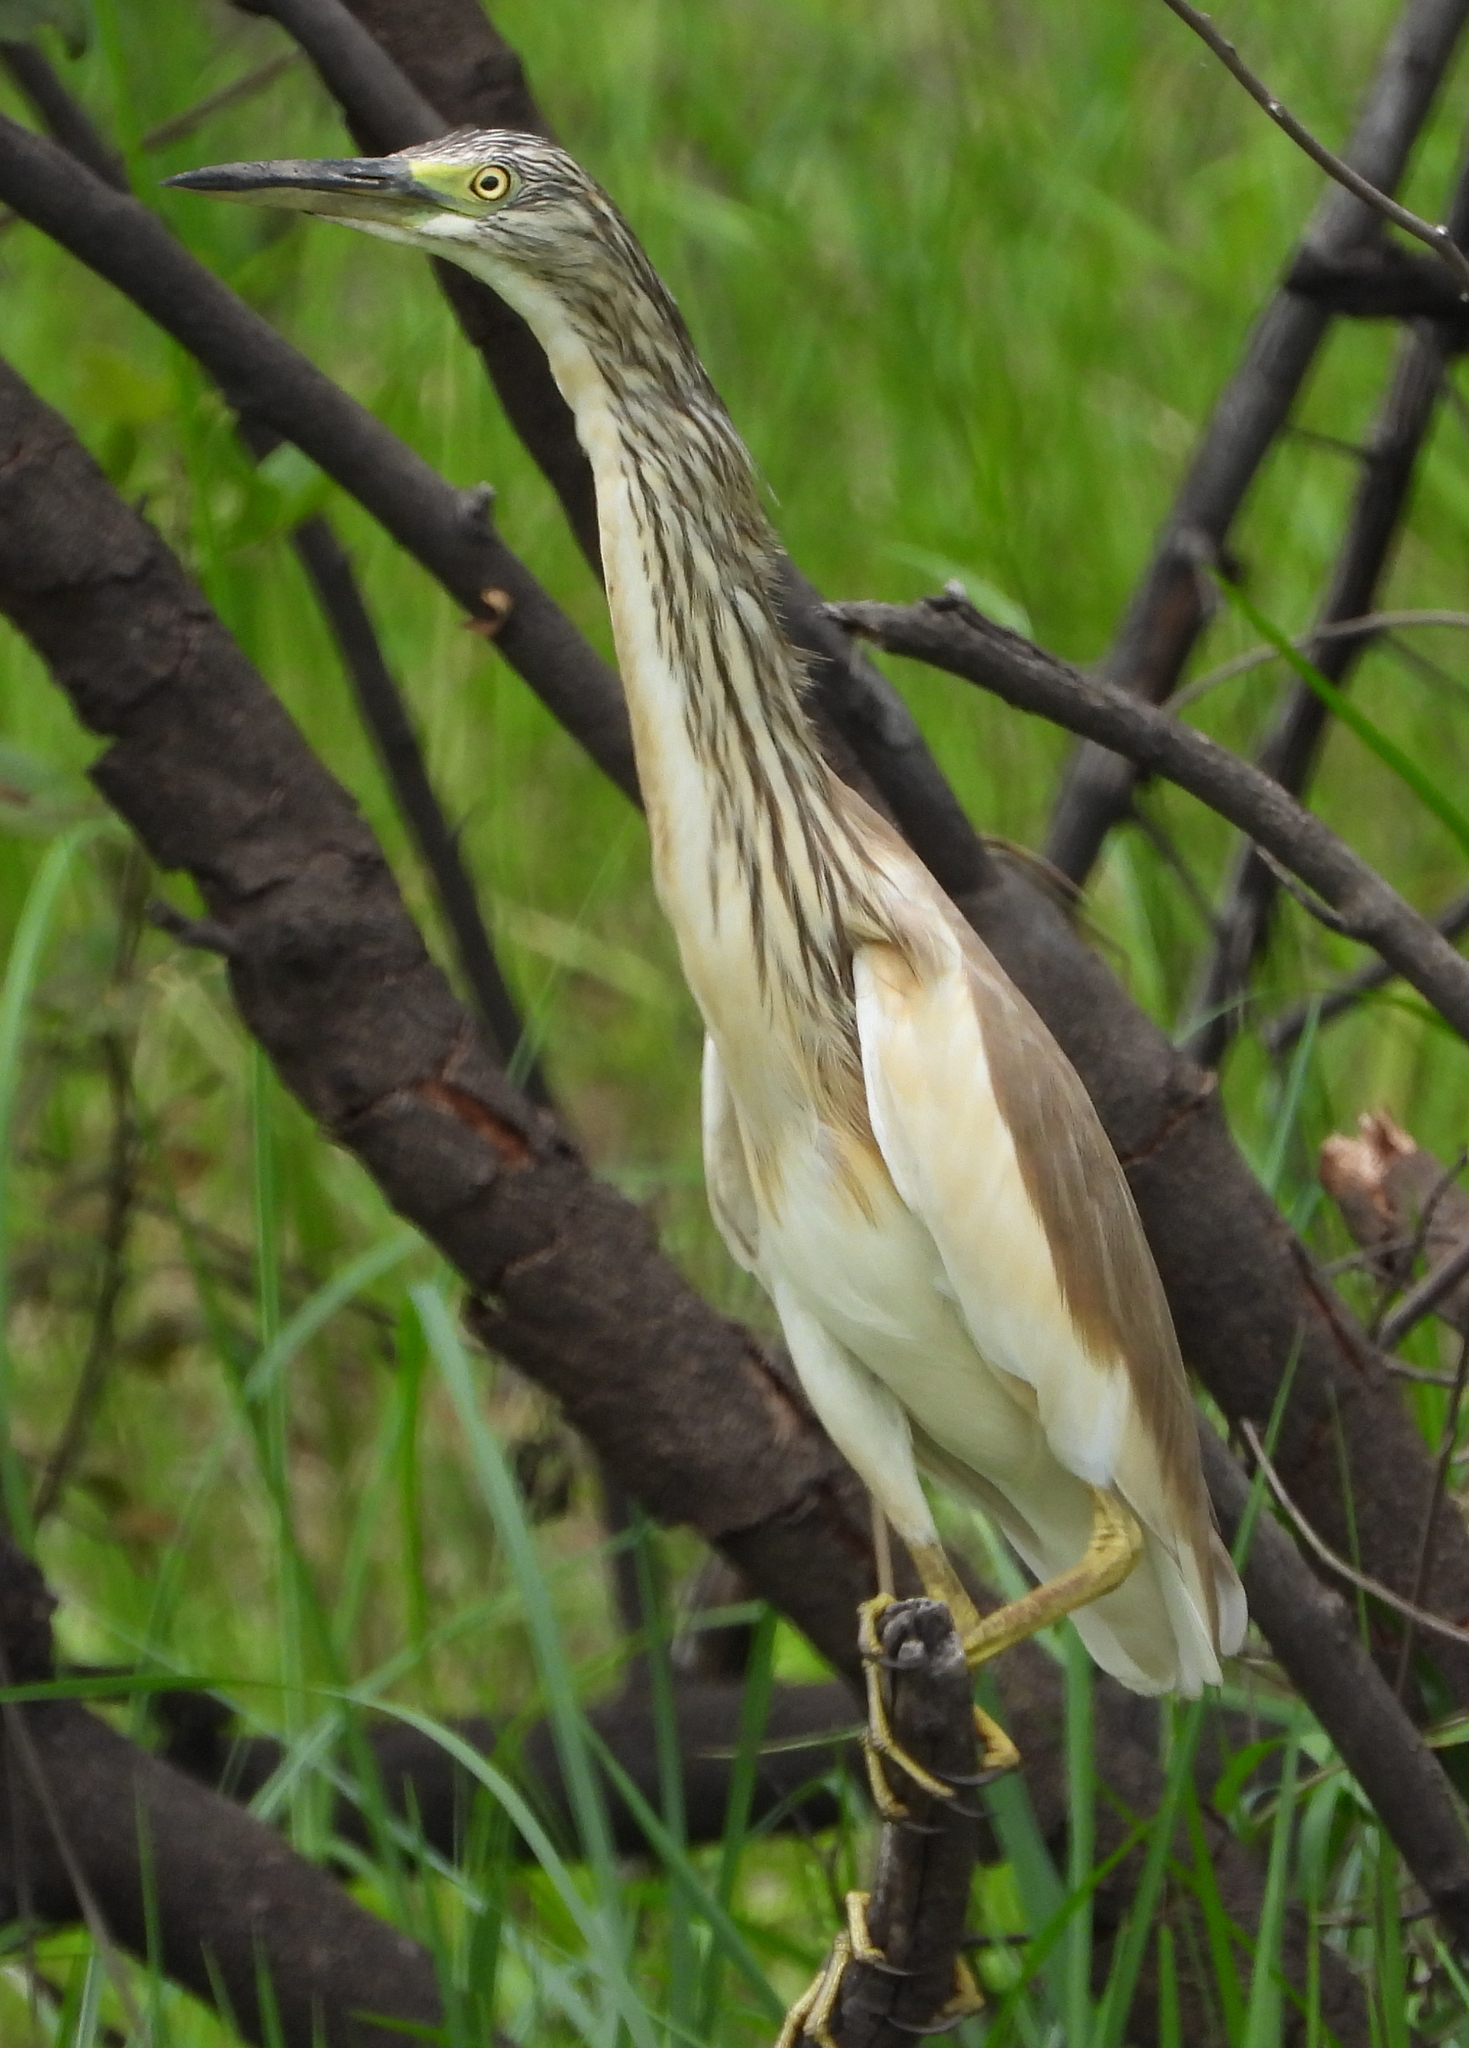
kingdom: Animalia
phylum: Chordata
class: Aves
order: Pelecaniformes
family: Ardeidae
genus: Ardeola
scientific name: Ardeola ralloides
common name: Squacco heron
